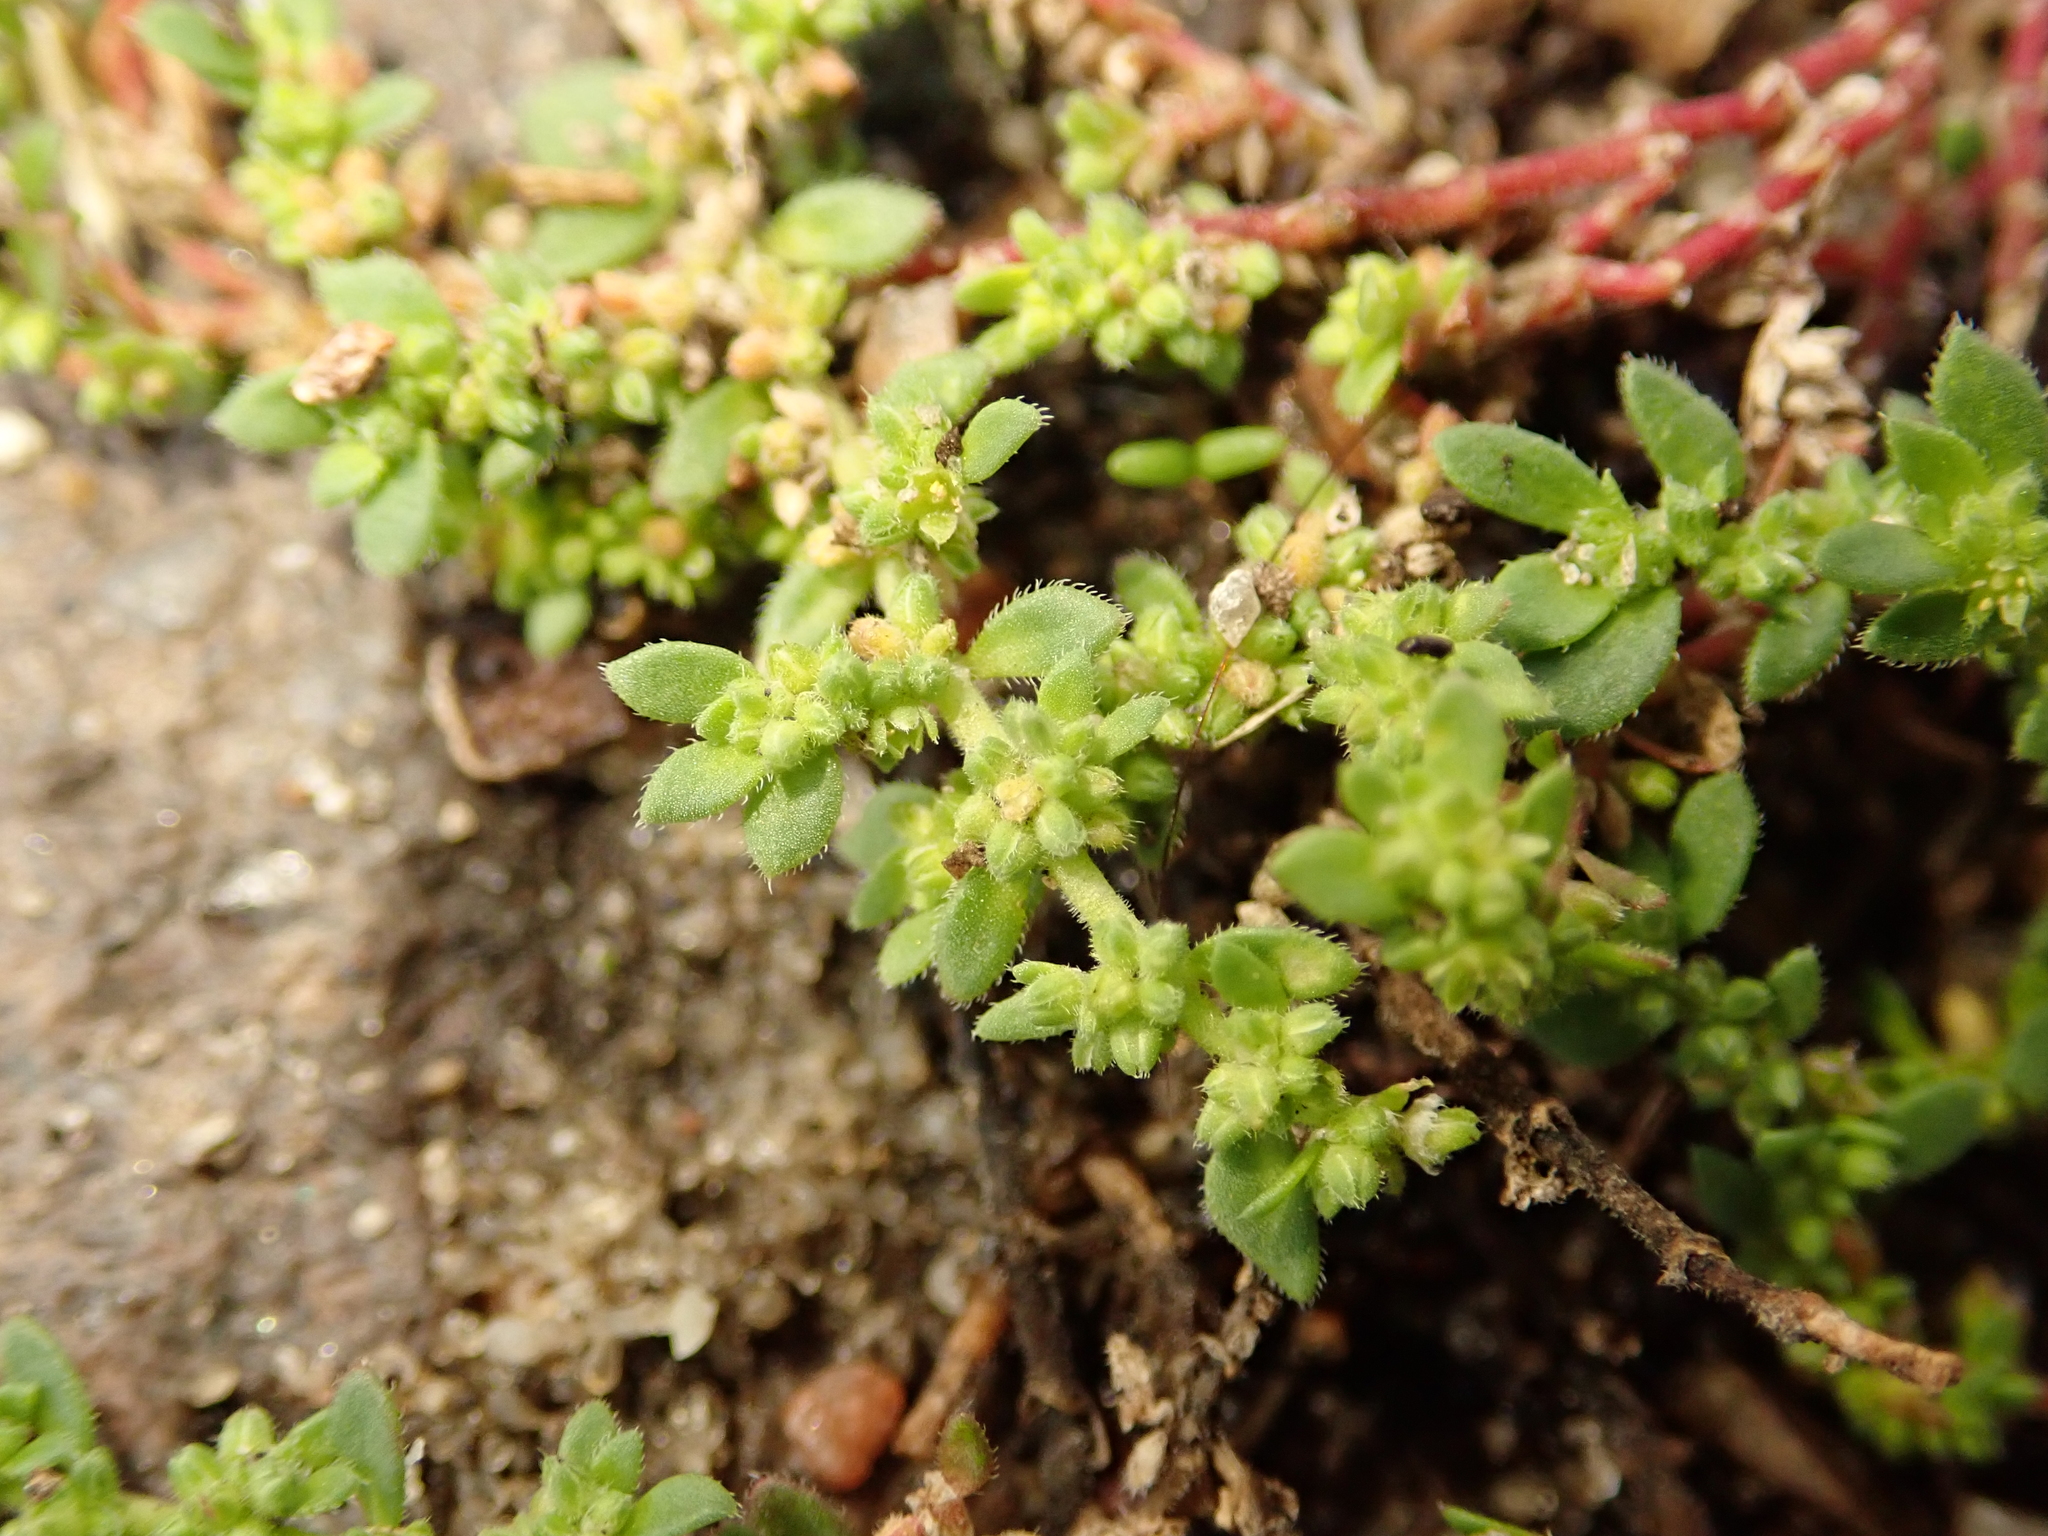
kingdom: Plantae
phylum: Tracheophyta
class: Magnoliopsida
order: Caryophyllales
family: Caryophyllaceae
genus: Herniaria
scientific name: Herniaria hirsuta
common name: Hairy rupturewort
